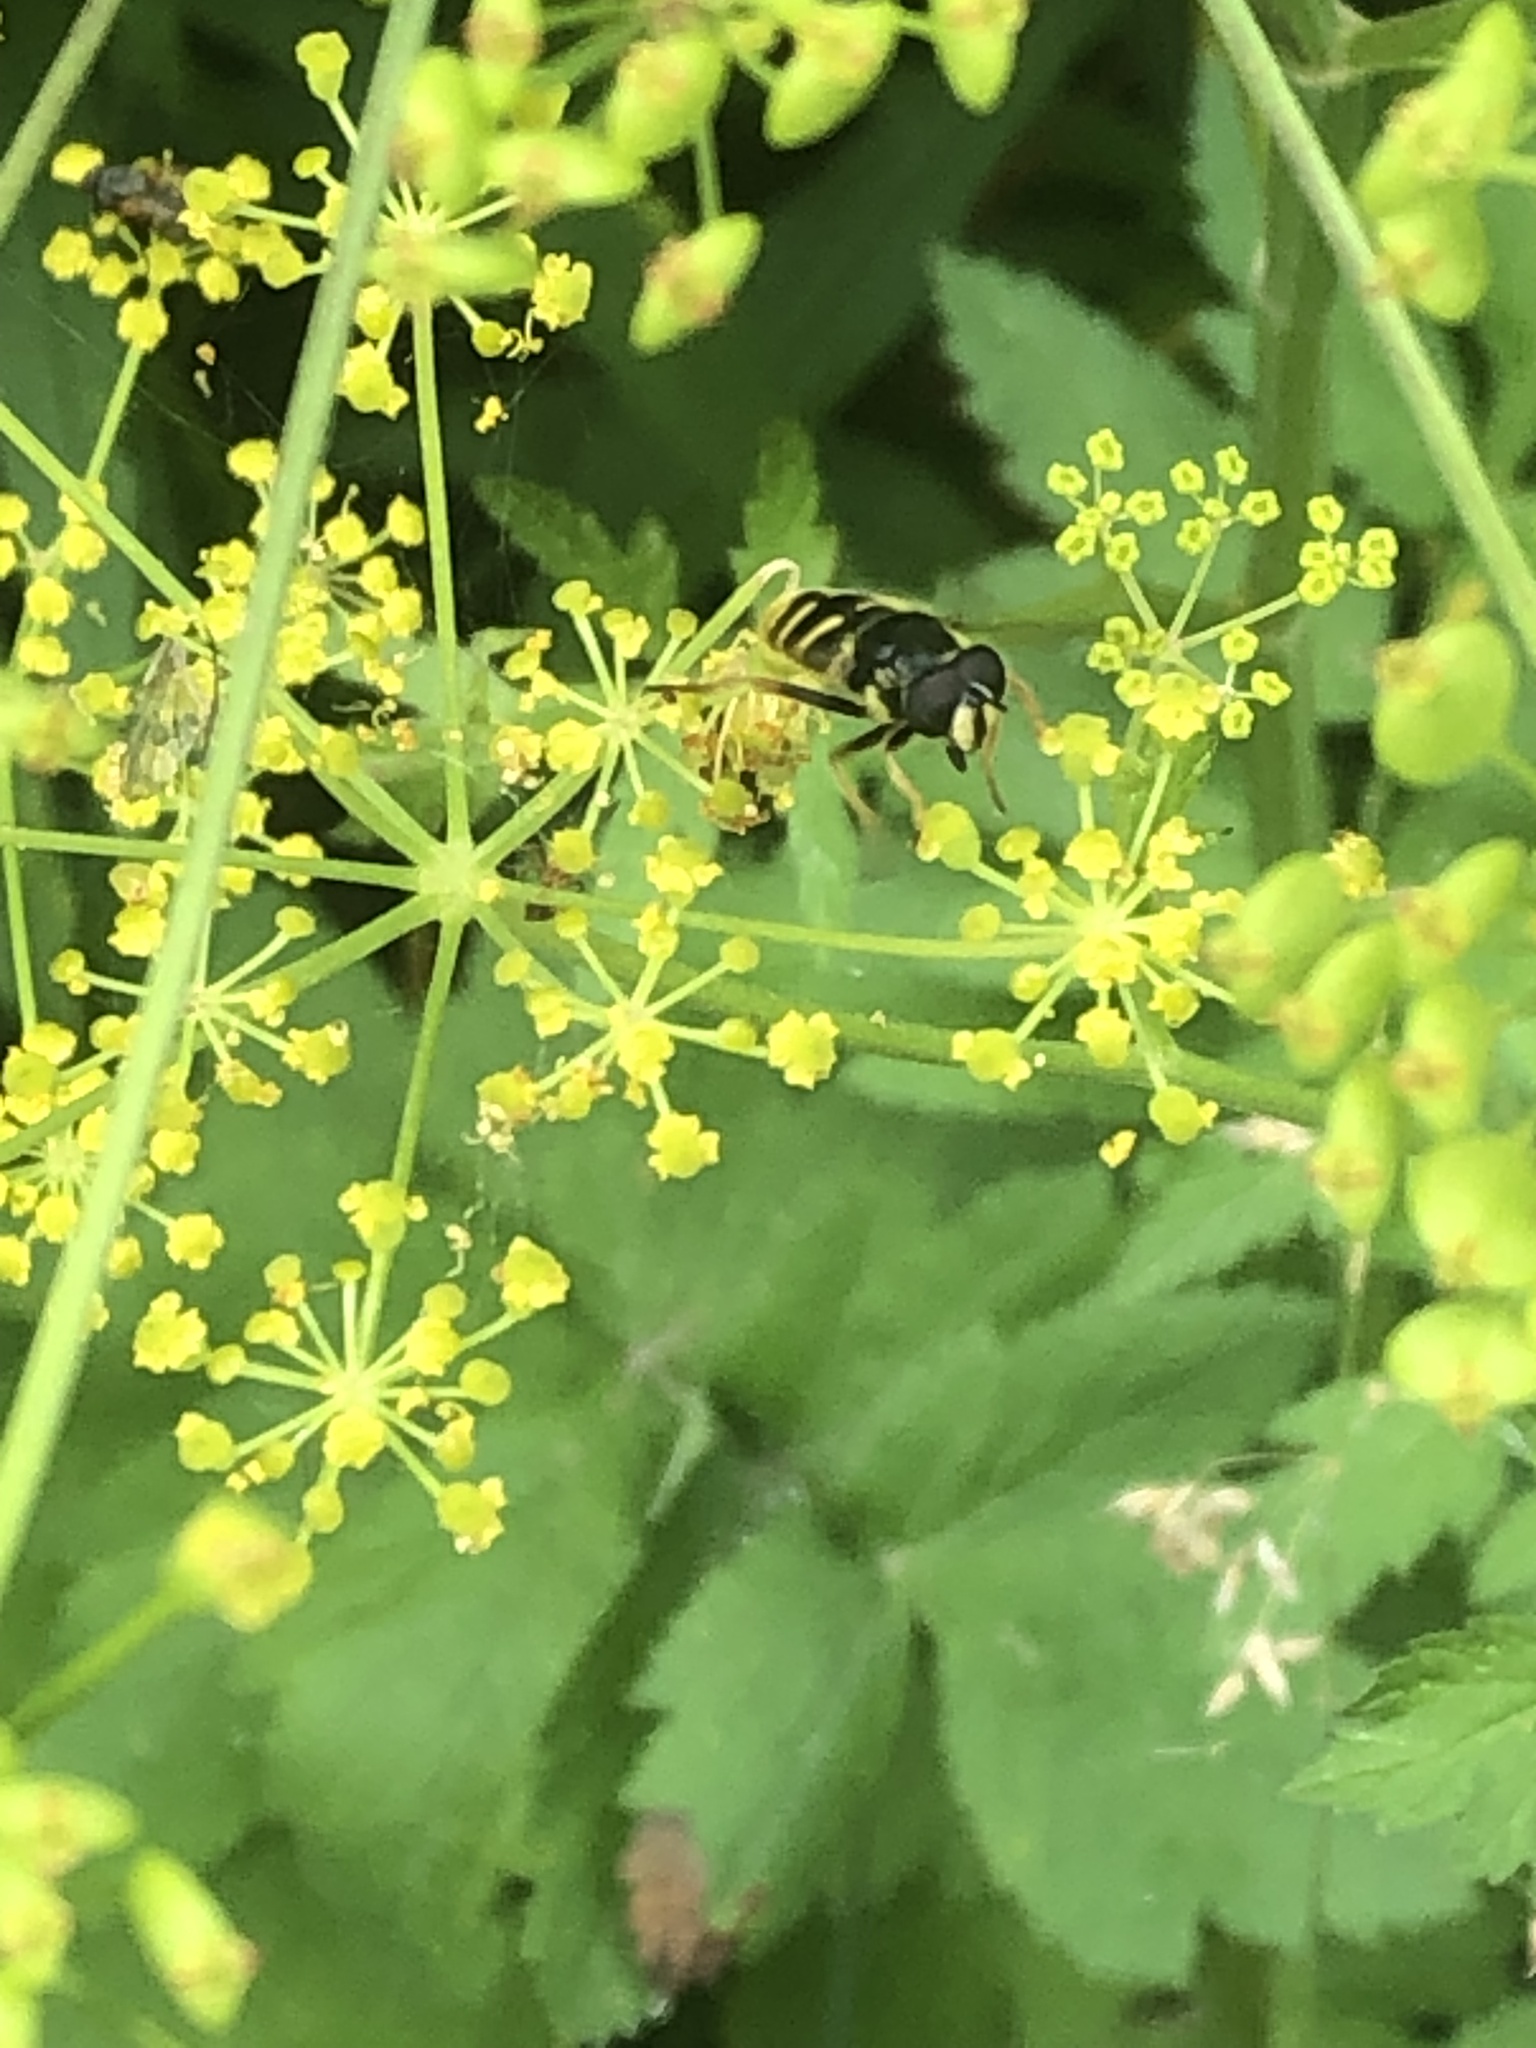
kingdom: Animalia
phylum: Arthropoda
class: Insecta
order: Diptera
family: Syrphidae
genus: Sericomyia
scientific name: Sericomyia chrysotoxoides
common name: Oblique-banded pond fly
